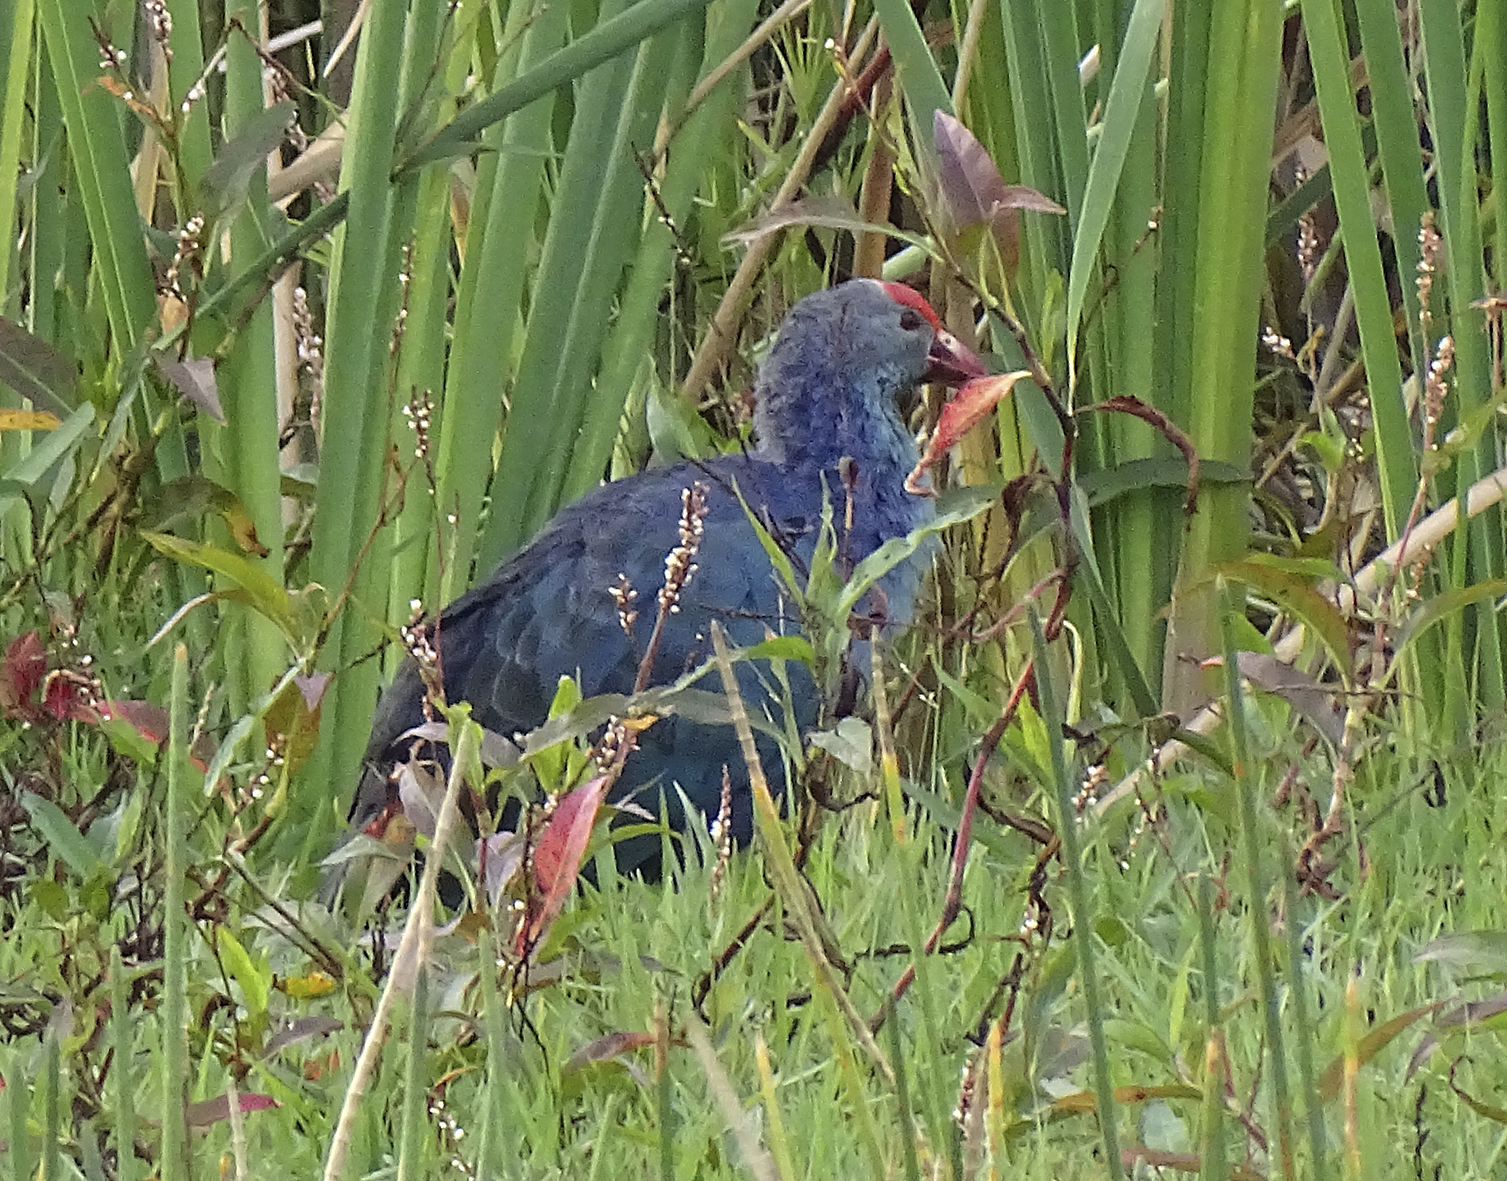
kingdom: Animalia
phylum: Chordata
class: Aves
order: Gruiformes
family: Rallidae
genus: Porphyrio
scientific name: Porphyrio porphyrio
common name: Purple swamphen
